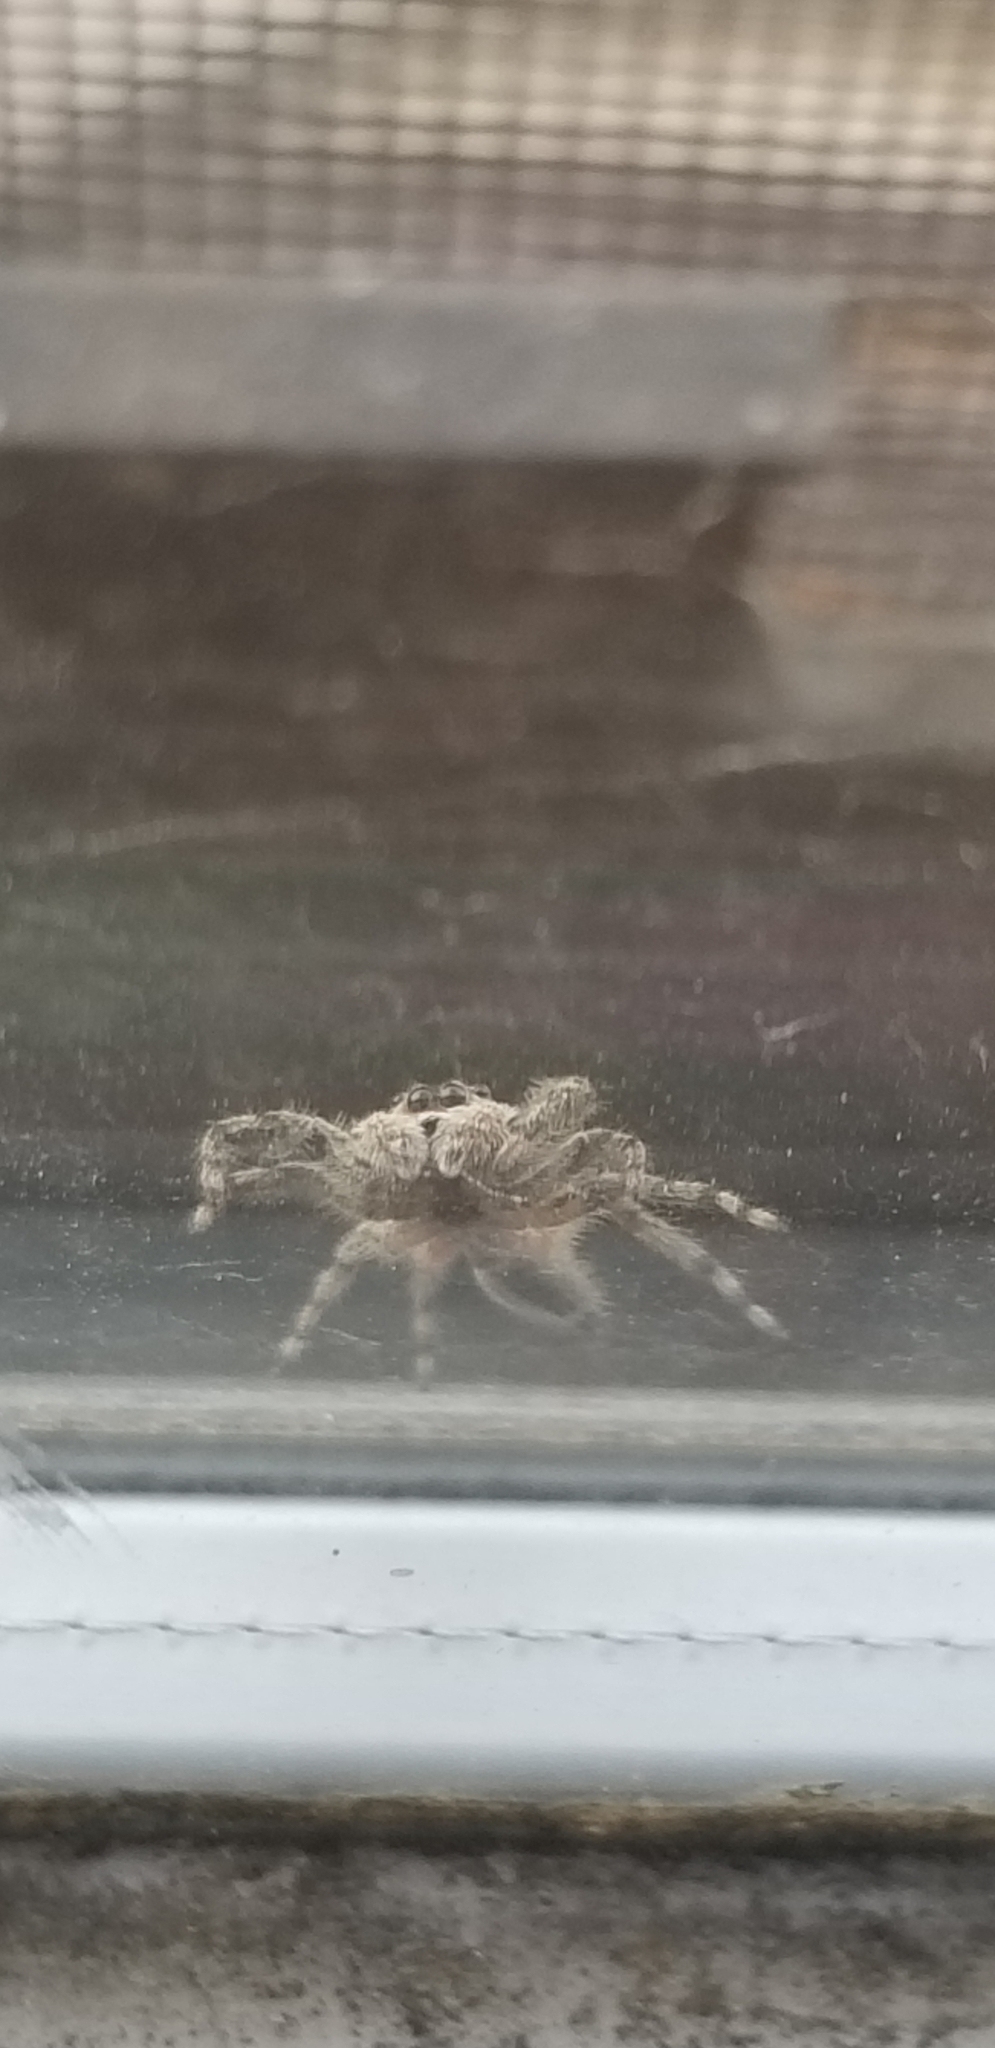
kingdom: Animalia
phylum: Arthropoda
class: Arachnida
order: Araneae
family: Salticidae
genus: Platycryptus
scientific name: Platycryptus undatus
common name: Tan jumping spider
